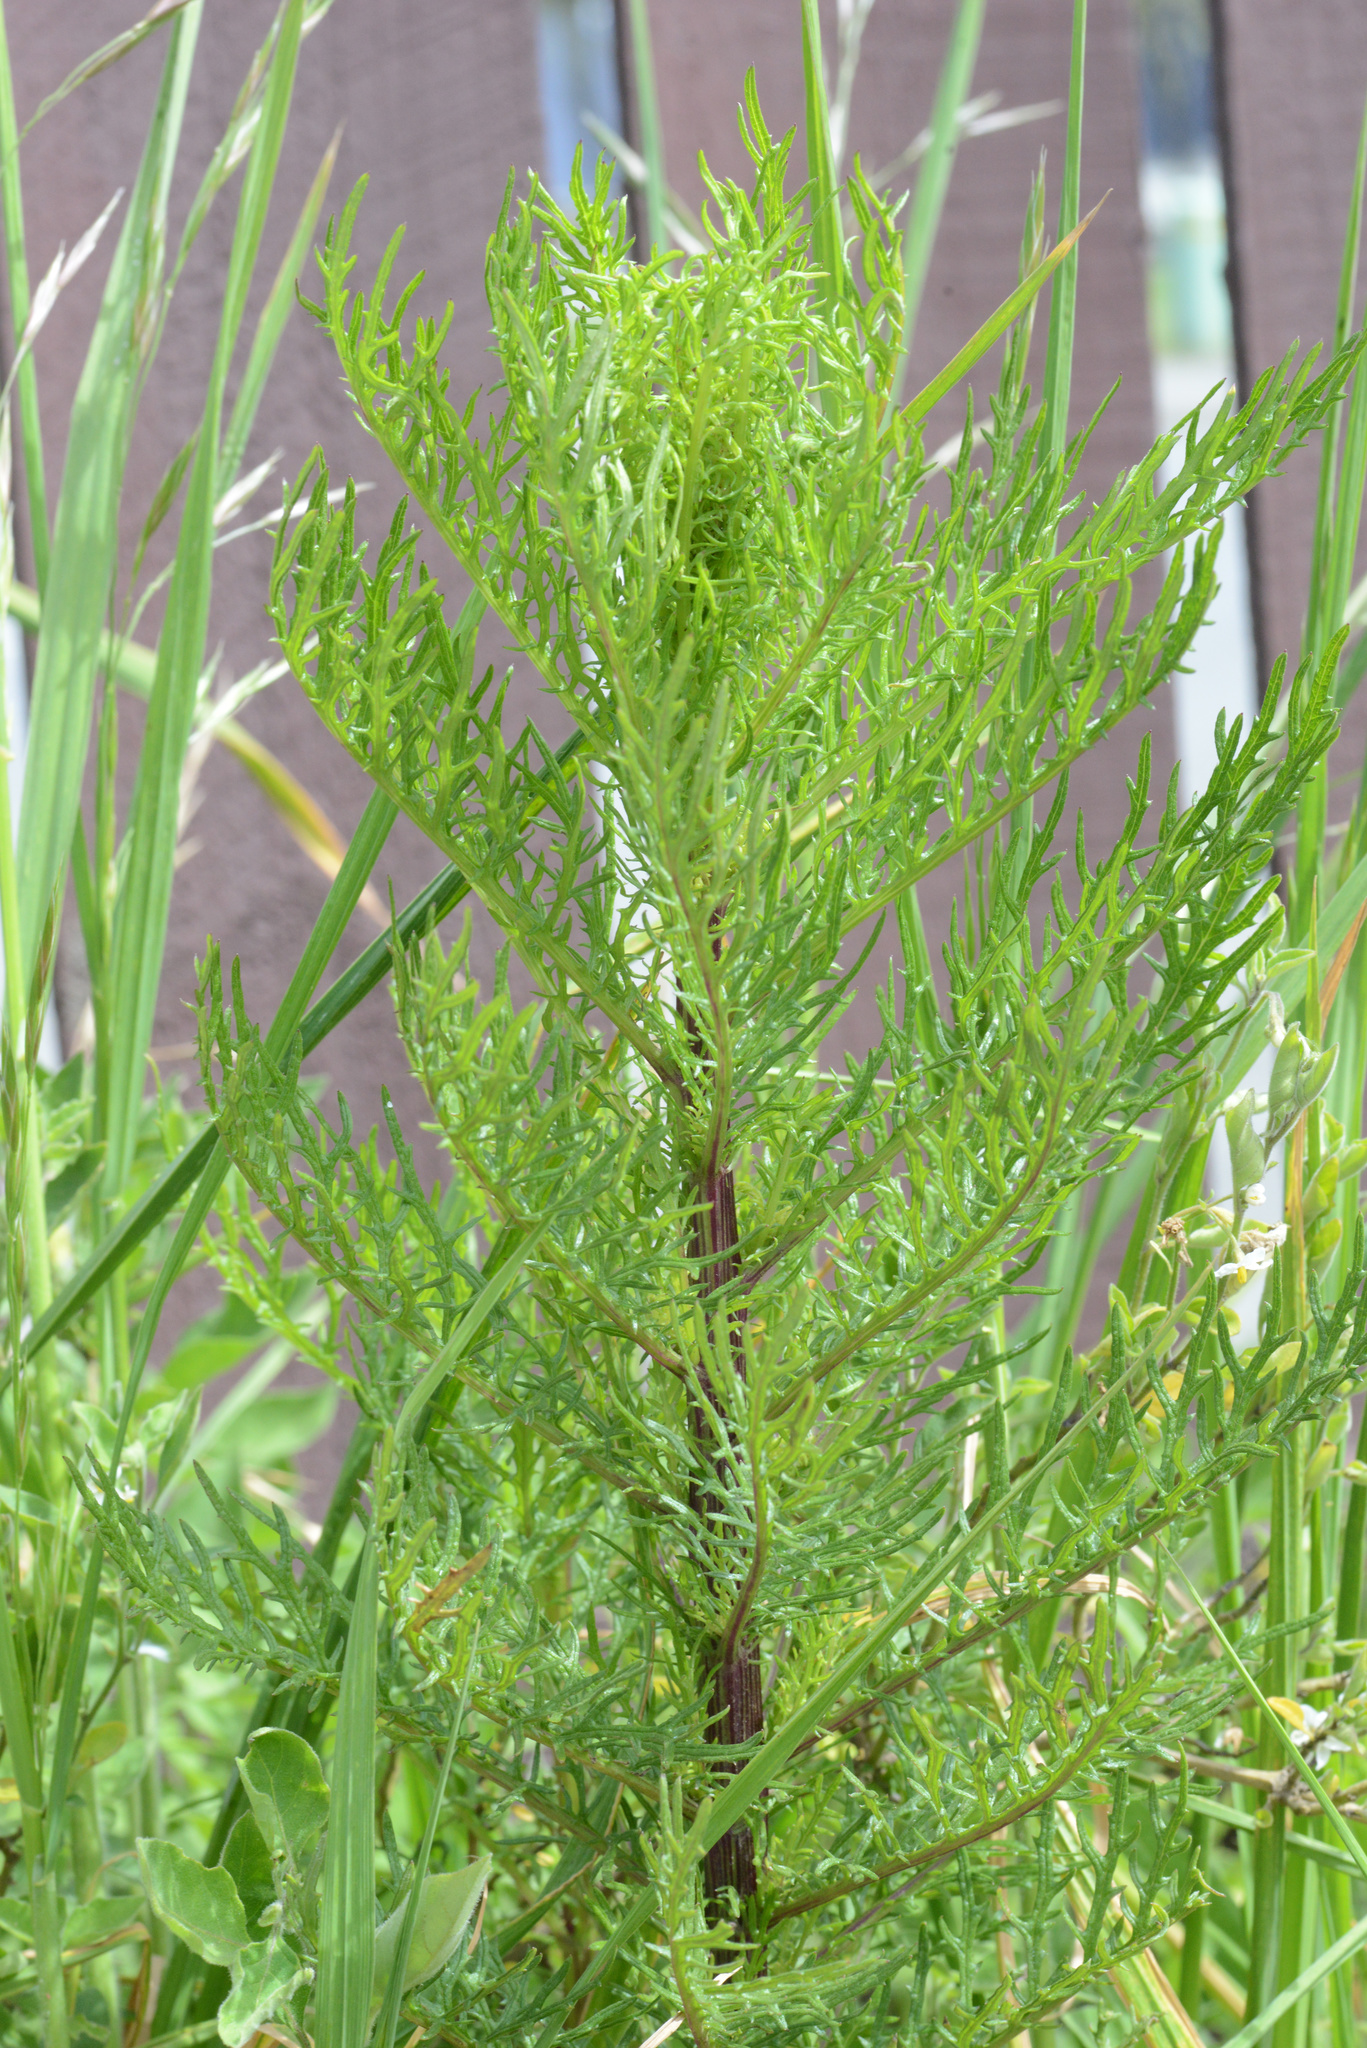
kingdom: Plantae
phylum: Tracheophyta
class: Magnoliopsida
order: Asterales
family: Asteraceae
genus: Senecio
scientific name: Senecio bipinnatisectus
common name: Australian fireweed
